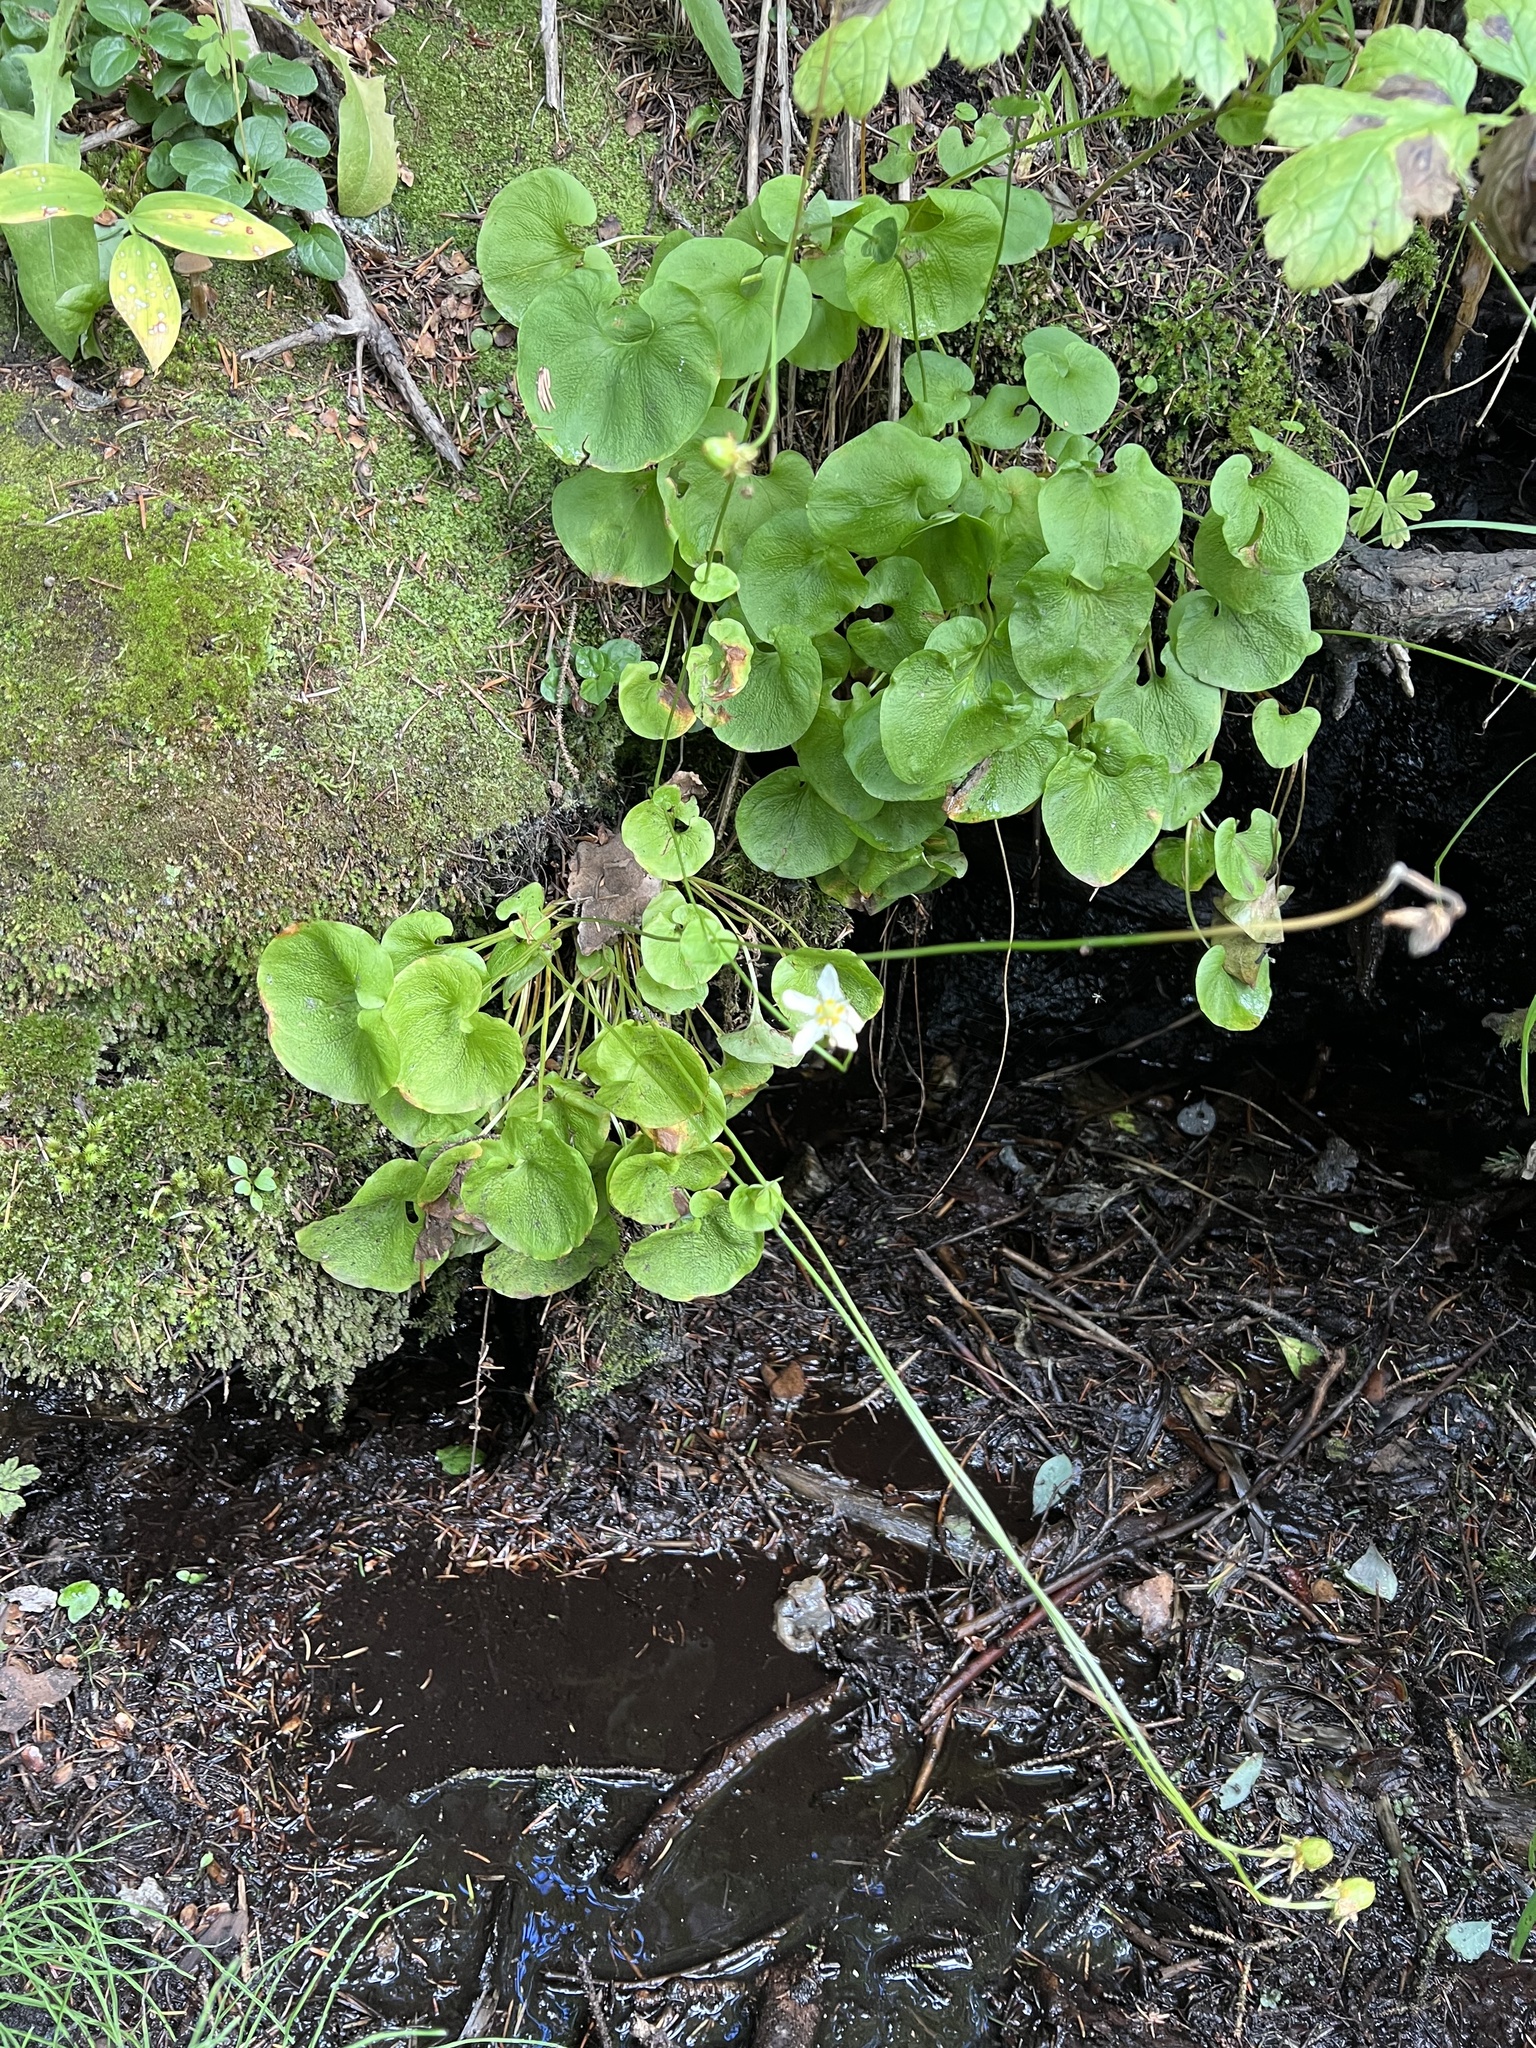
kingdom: Plantae
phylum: Tracheophyta
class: Magnoliopsida
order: Celastrales
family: Parnassiaceae
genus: Parnassia
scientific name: Parnassia fimbriata
